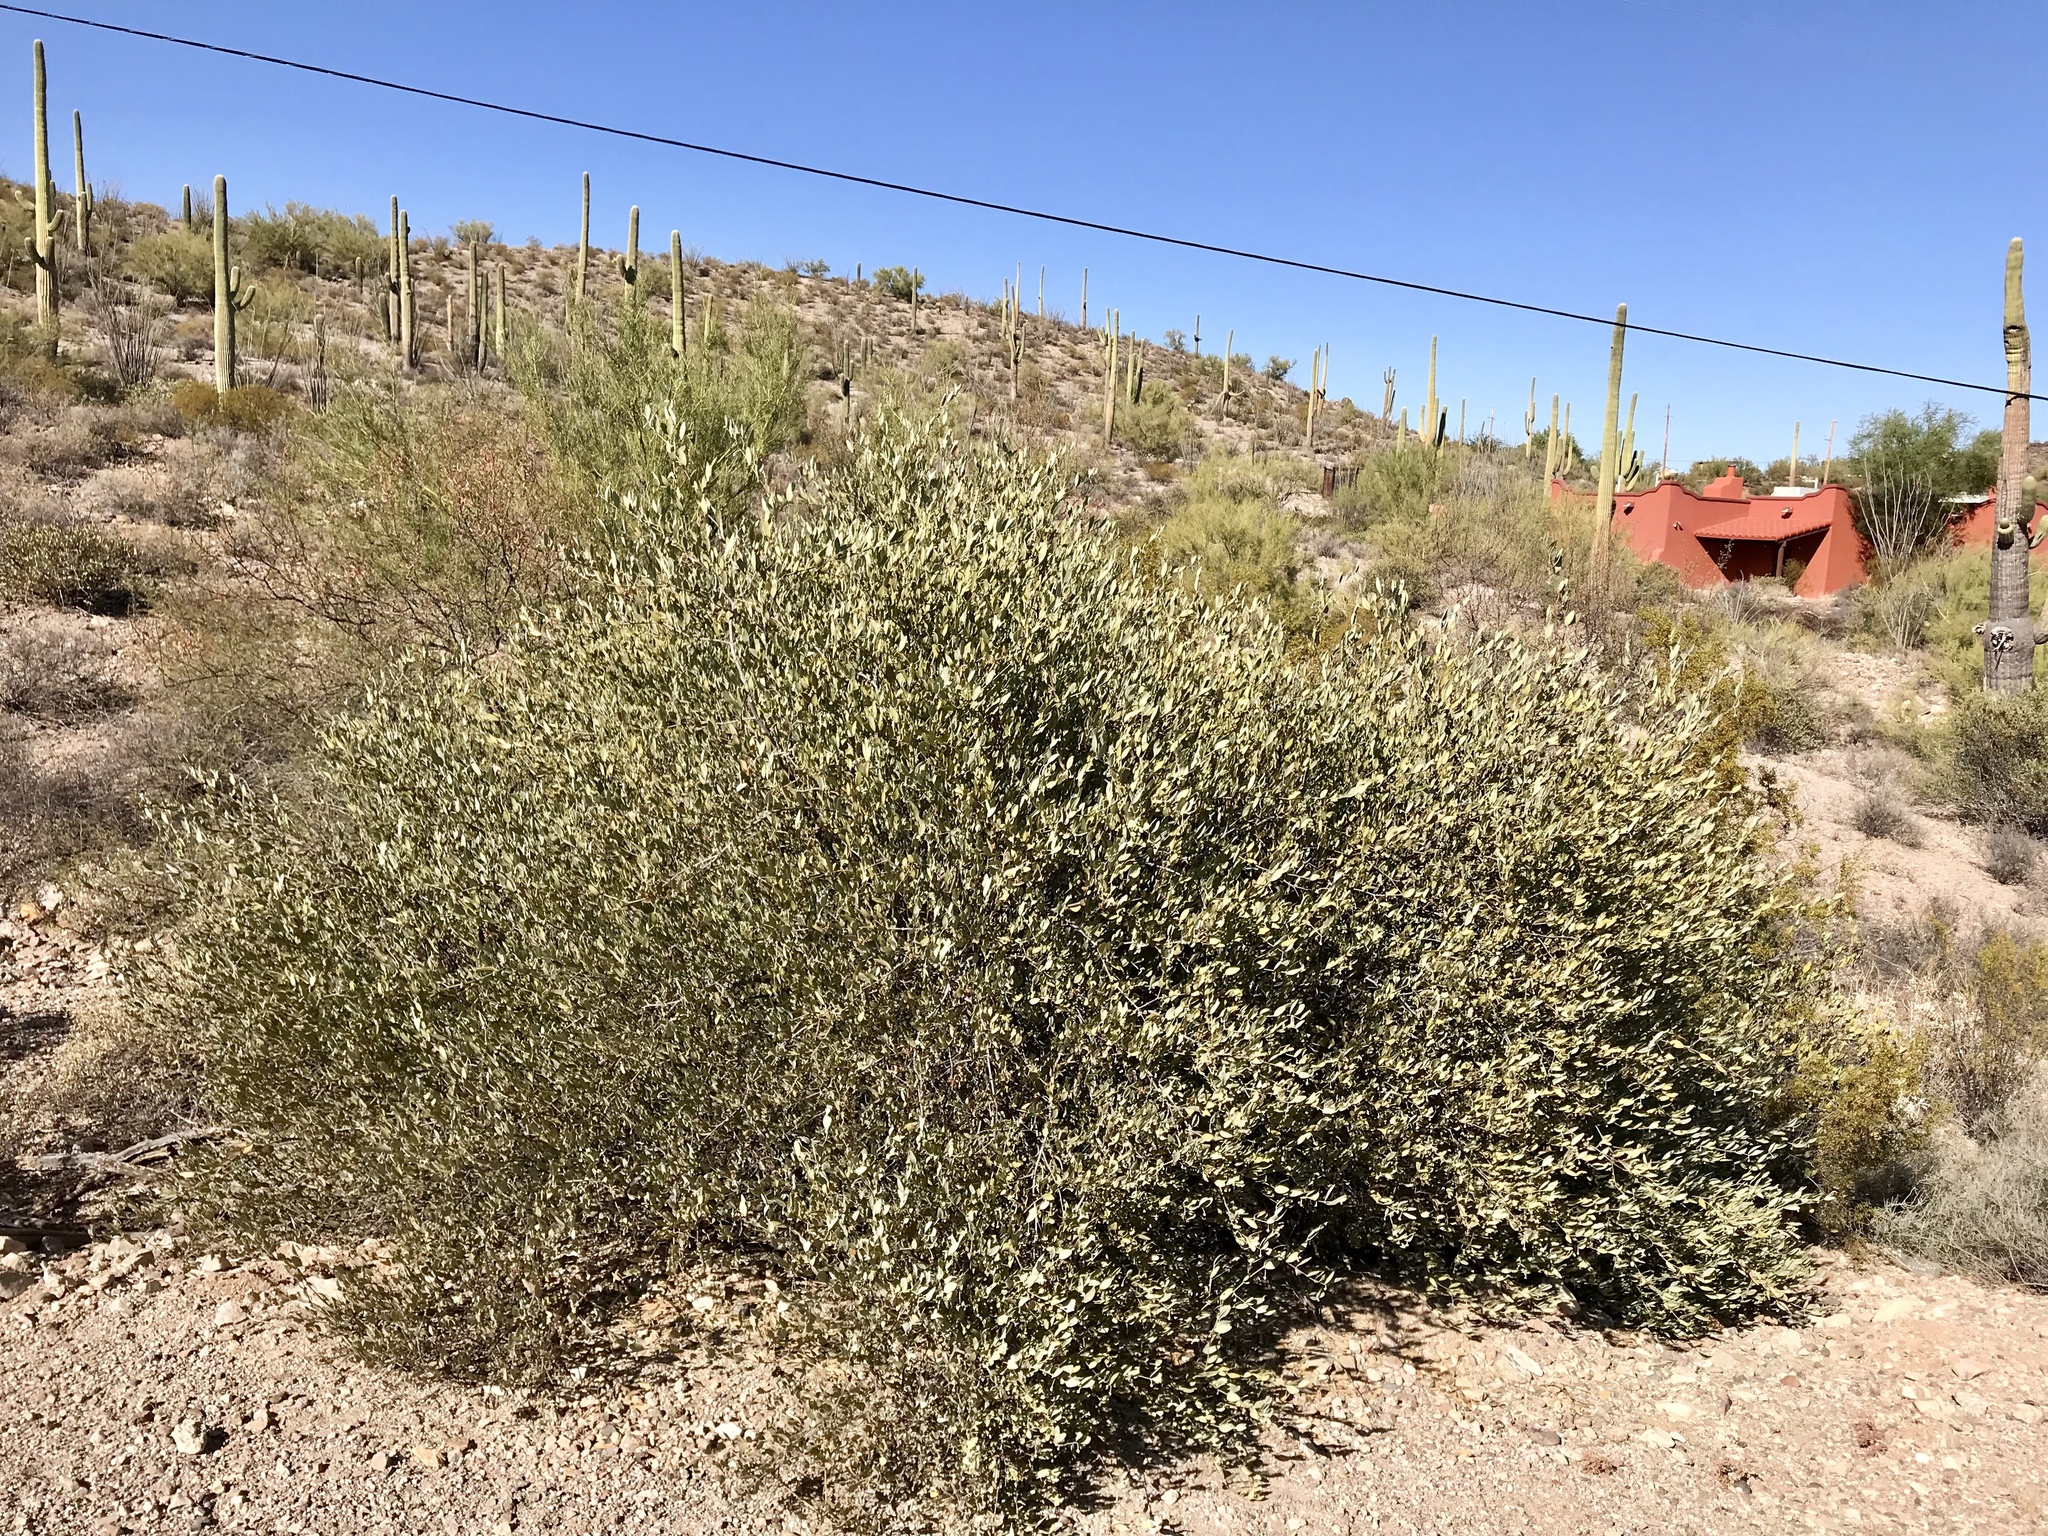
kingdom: Plantae
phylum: Tracheophyta
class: Magnoliopsida
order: Caryophyllales
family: Simmondsiaceae
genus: Simmondsia
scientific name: Simmondsia chinensis
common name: Jojoba
